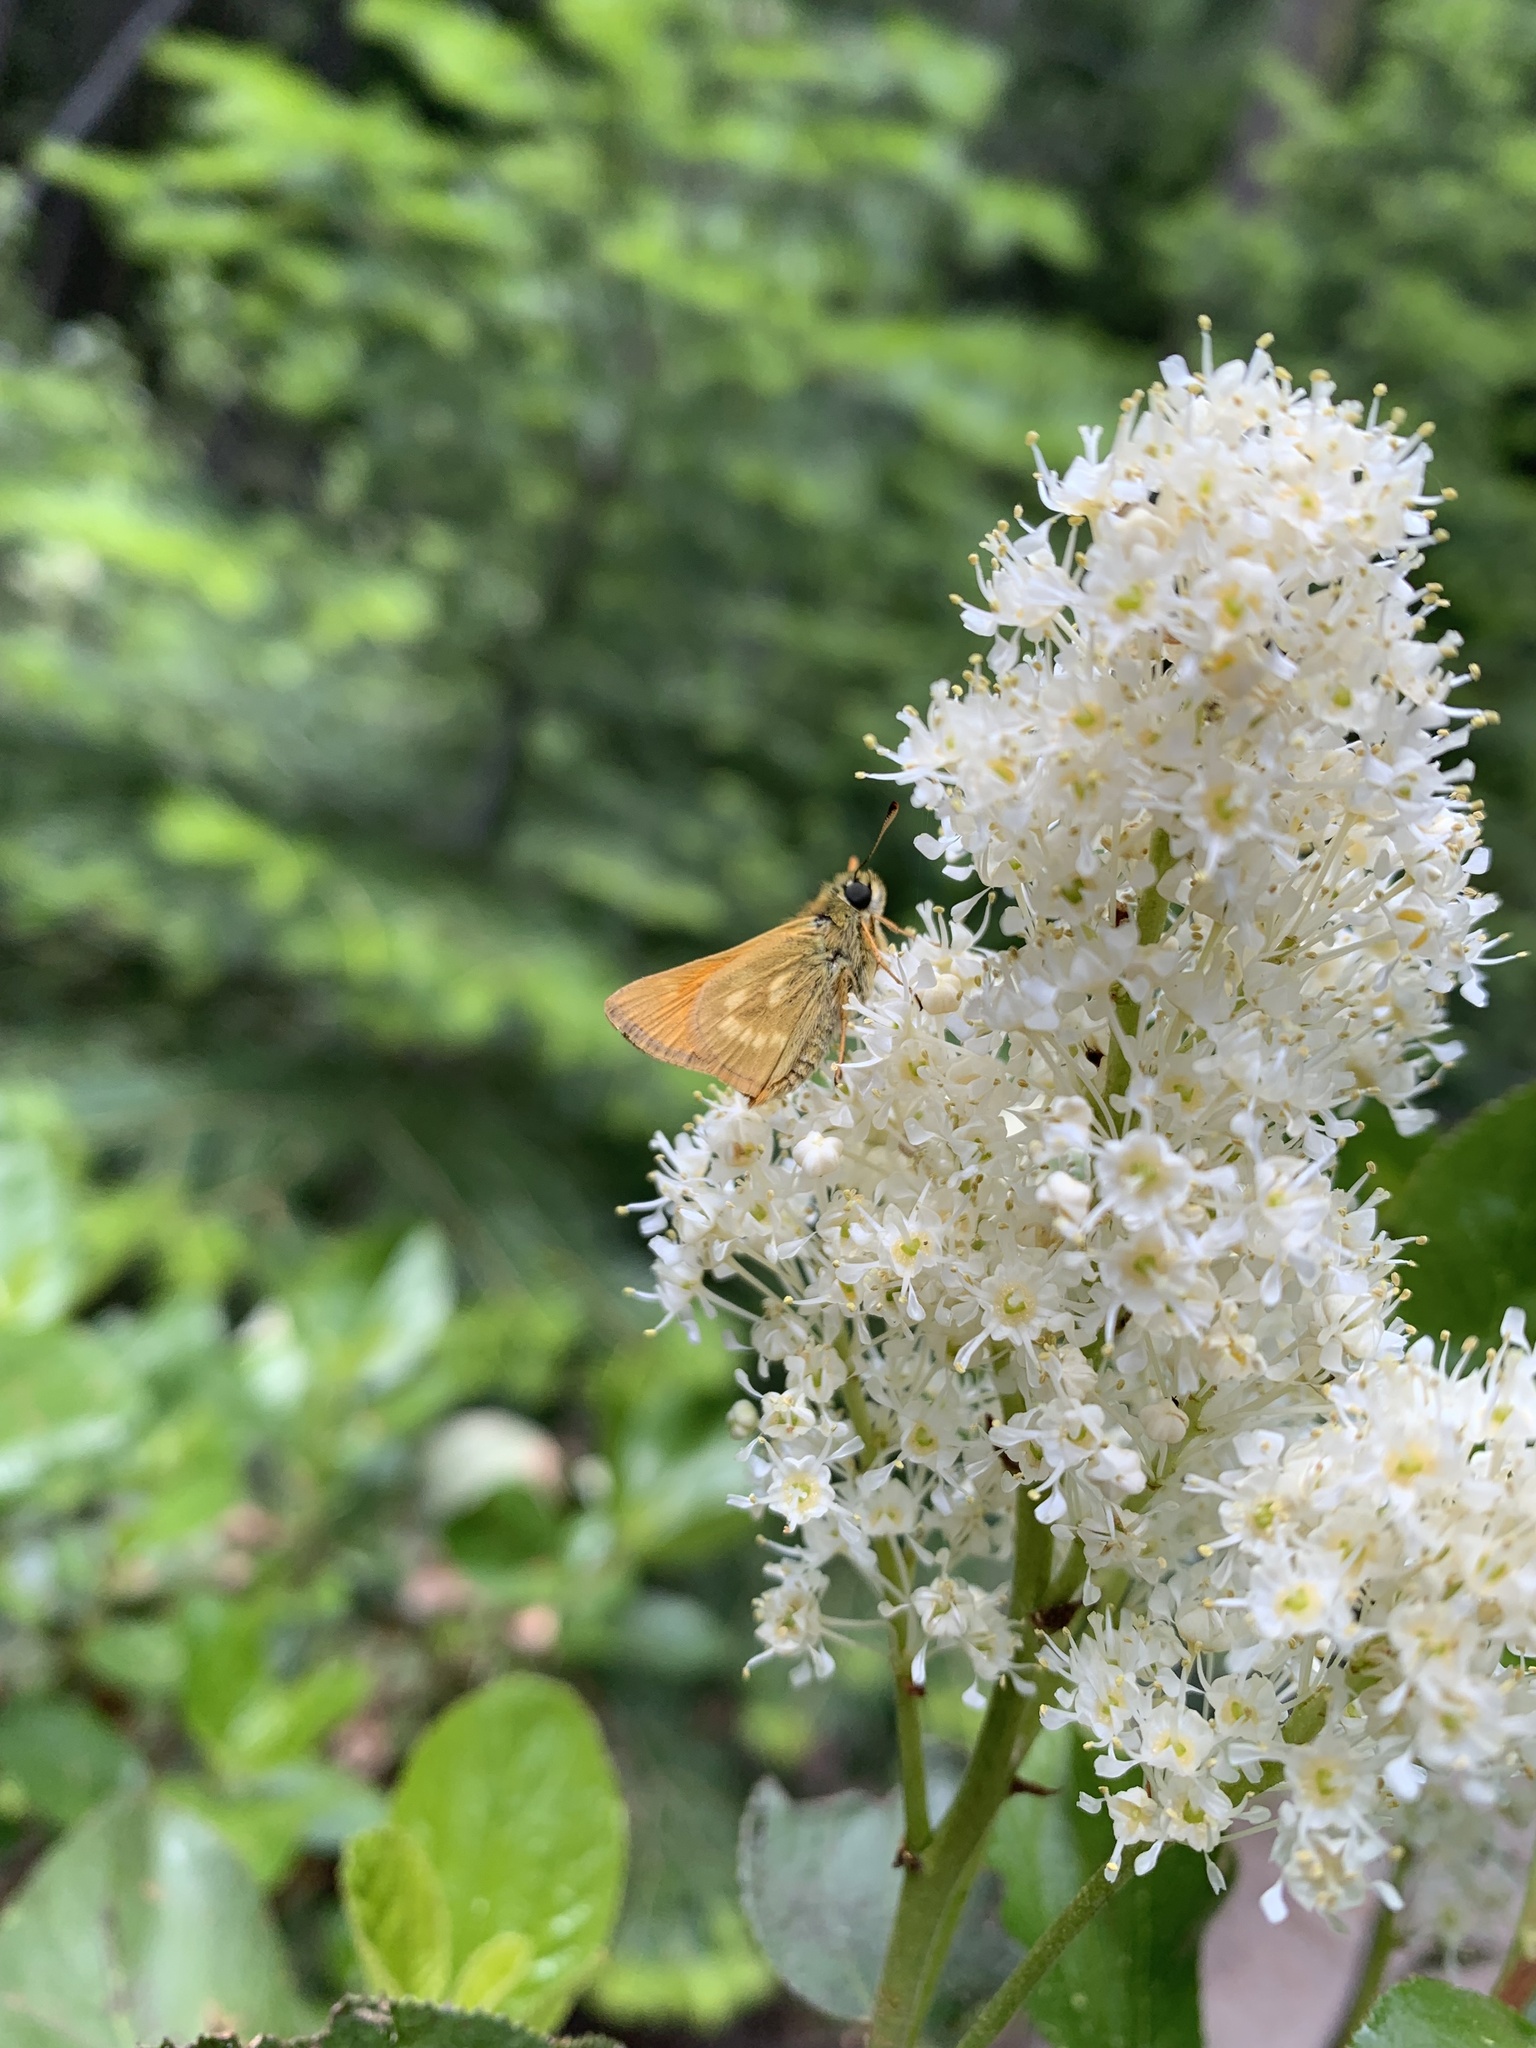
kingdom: Animalia
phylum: Arthropoda
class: Insecta
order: Lepidoptera
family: Hesperiidae
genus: Polites
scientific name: Polites mystic
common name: Long dash
